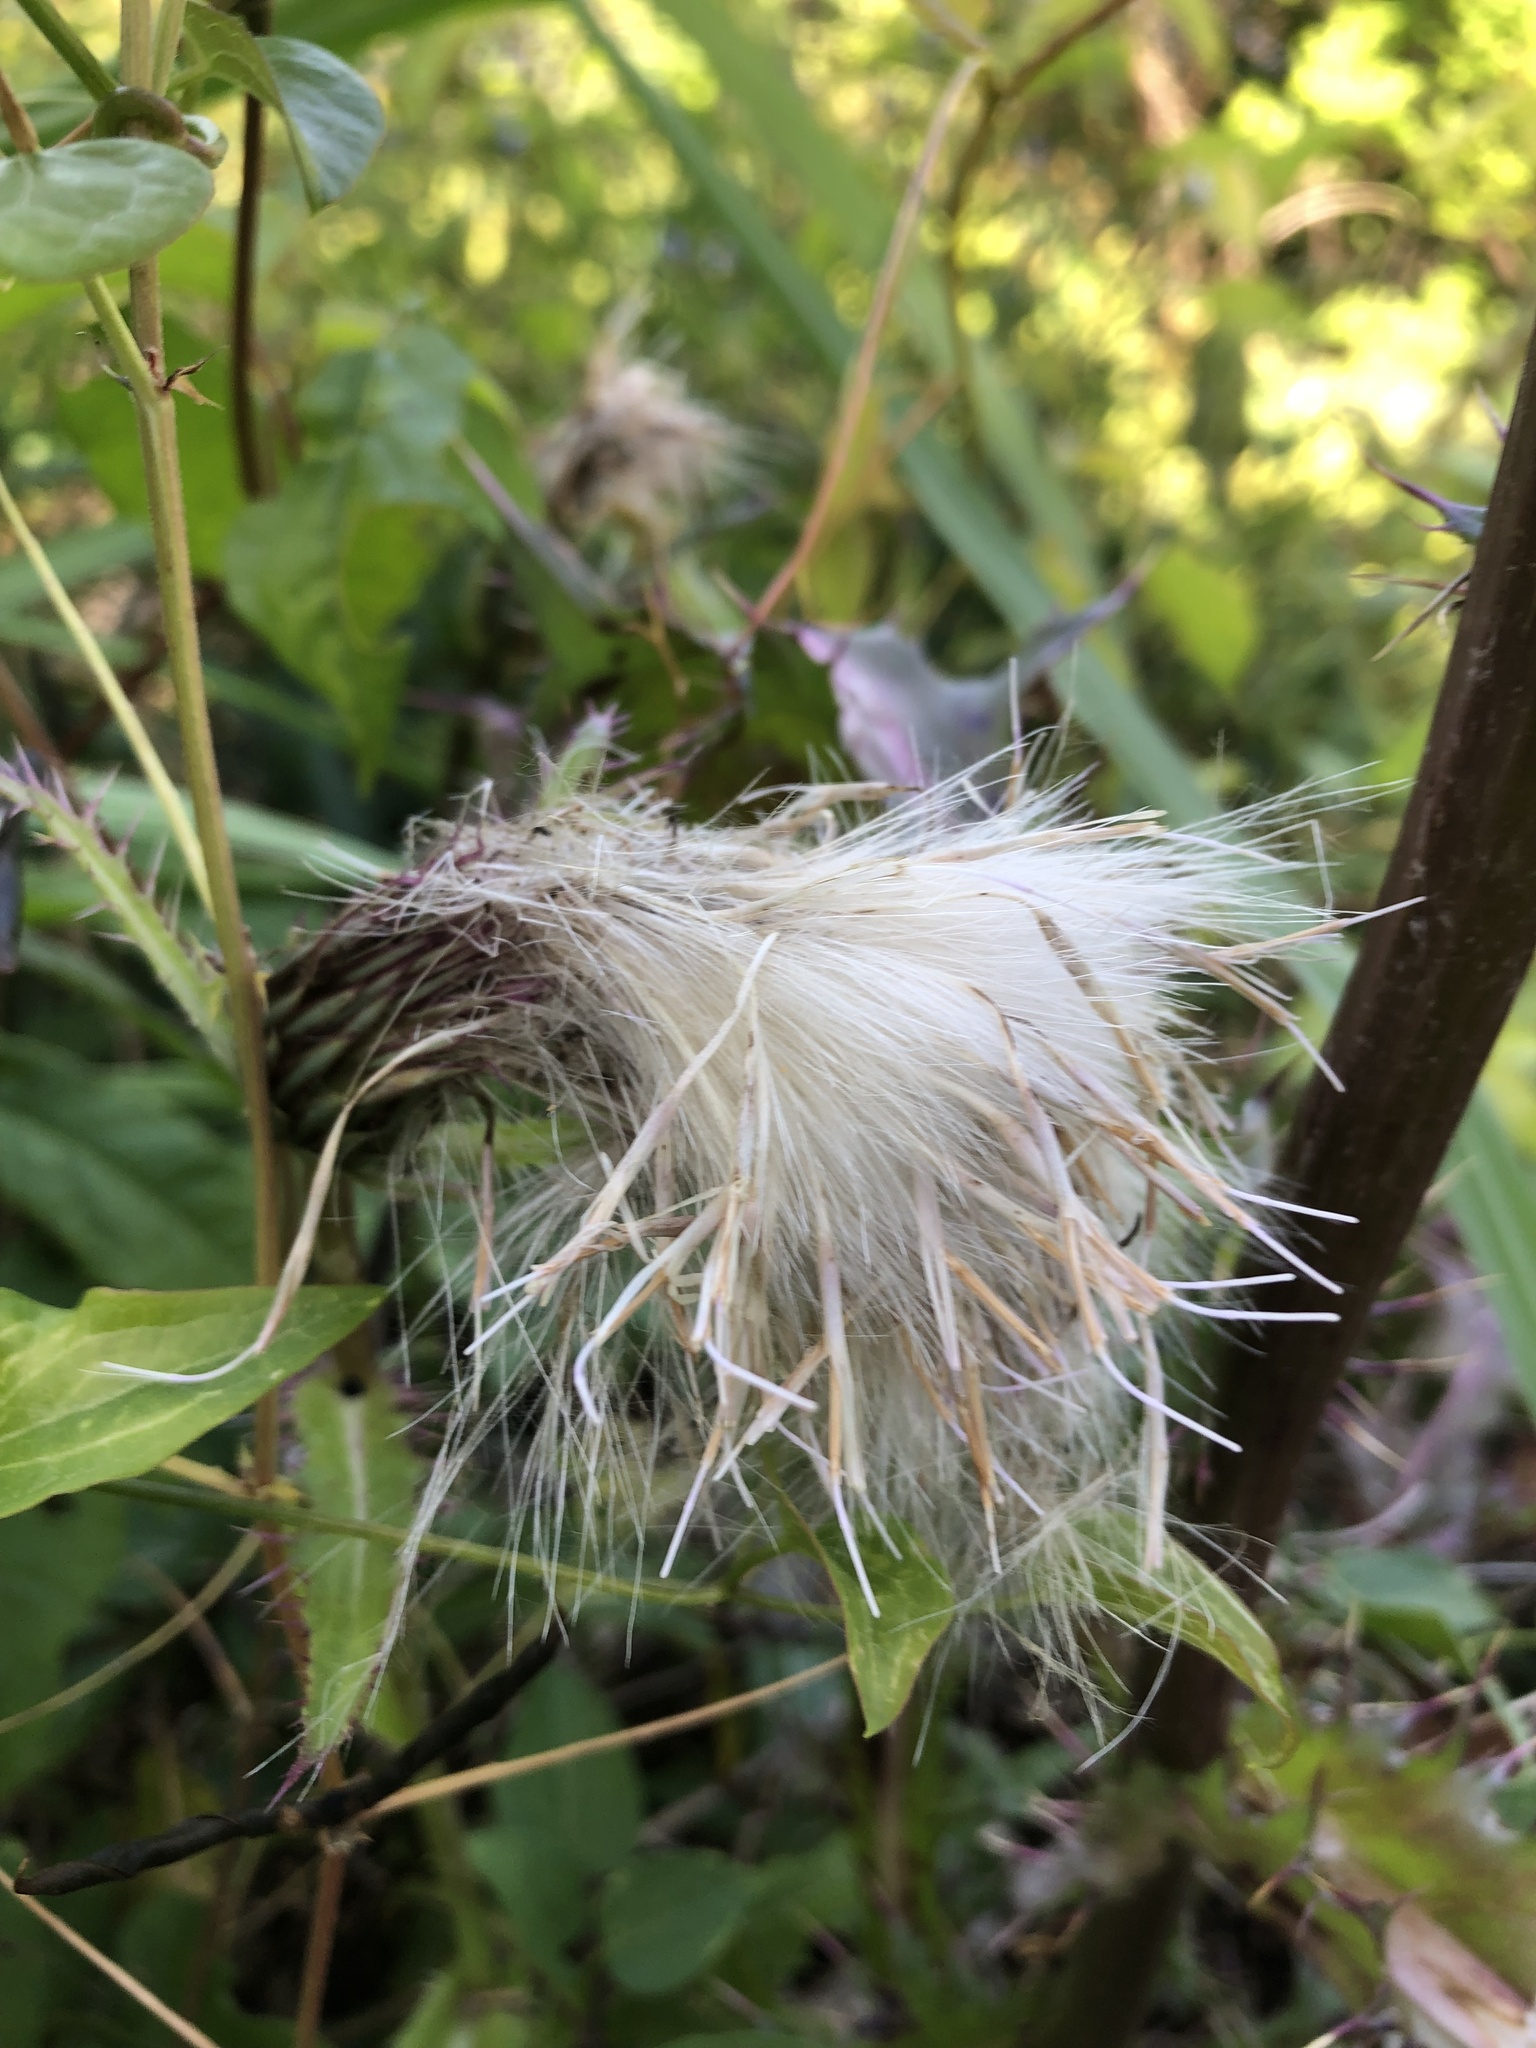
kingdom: Plantae
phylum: Tracheophyta
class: Magnoliopsida
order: Asterales
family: Asteraceae
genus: Cirsium
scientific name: Cirsium horridulum
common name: Bristly thistle
